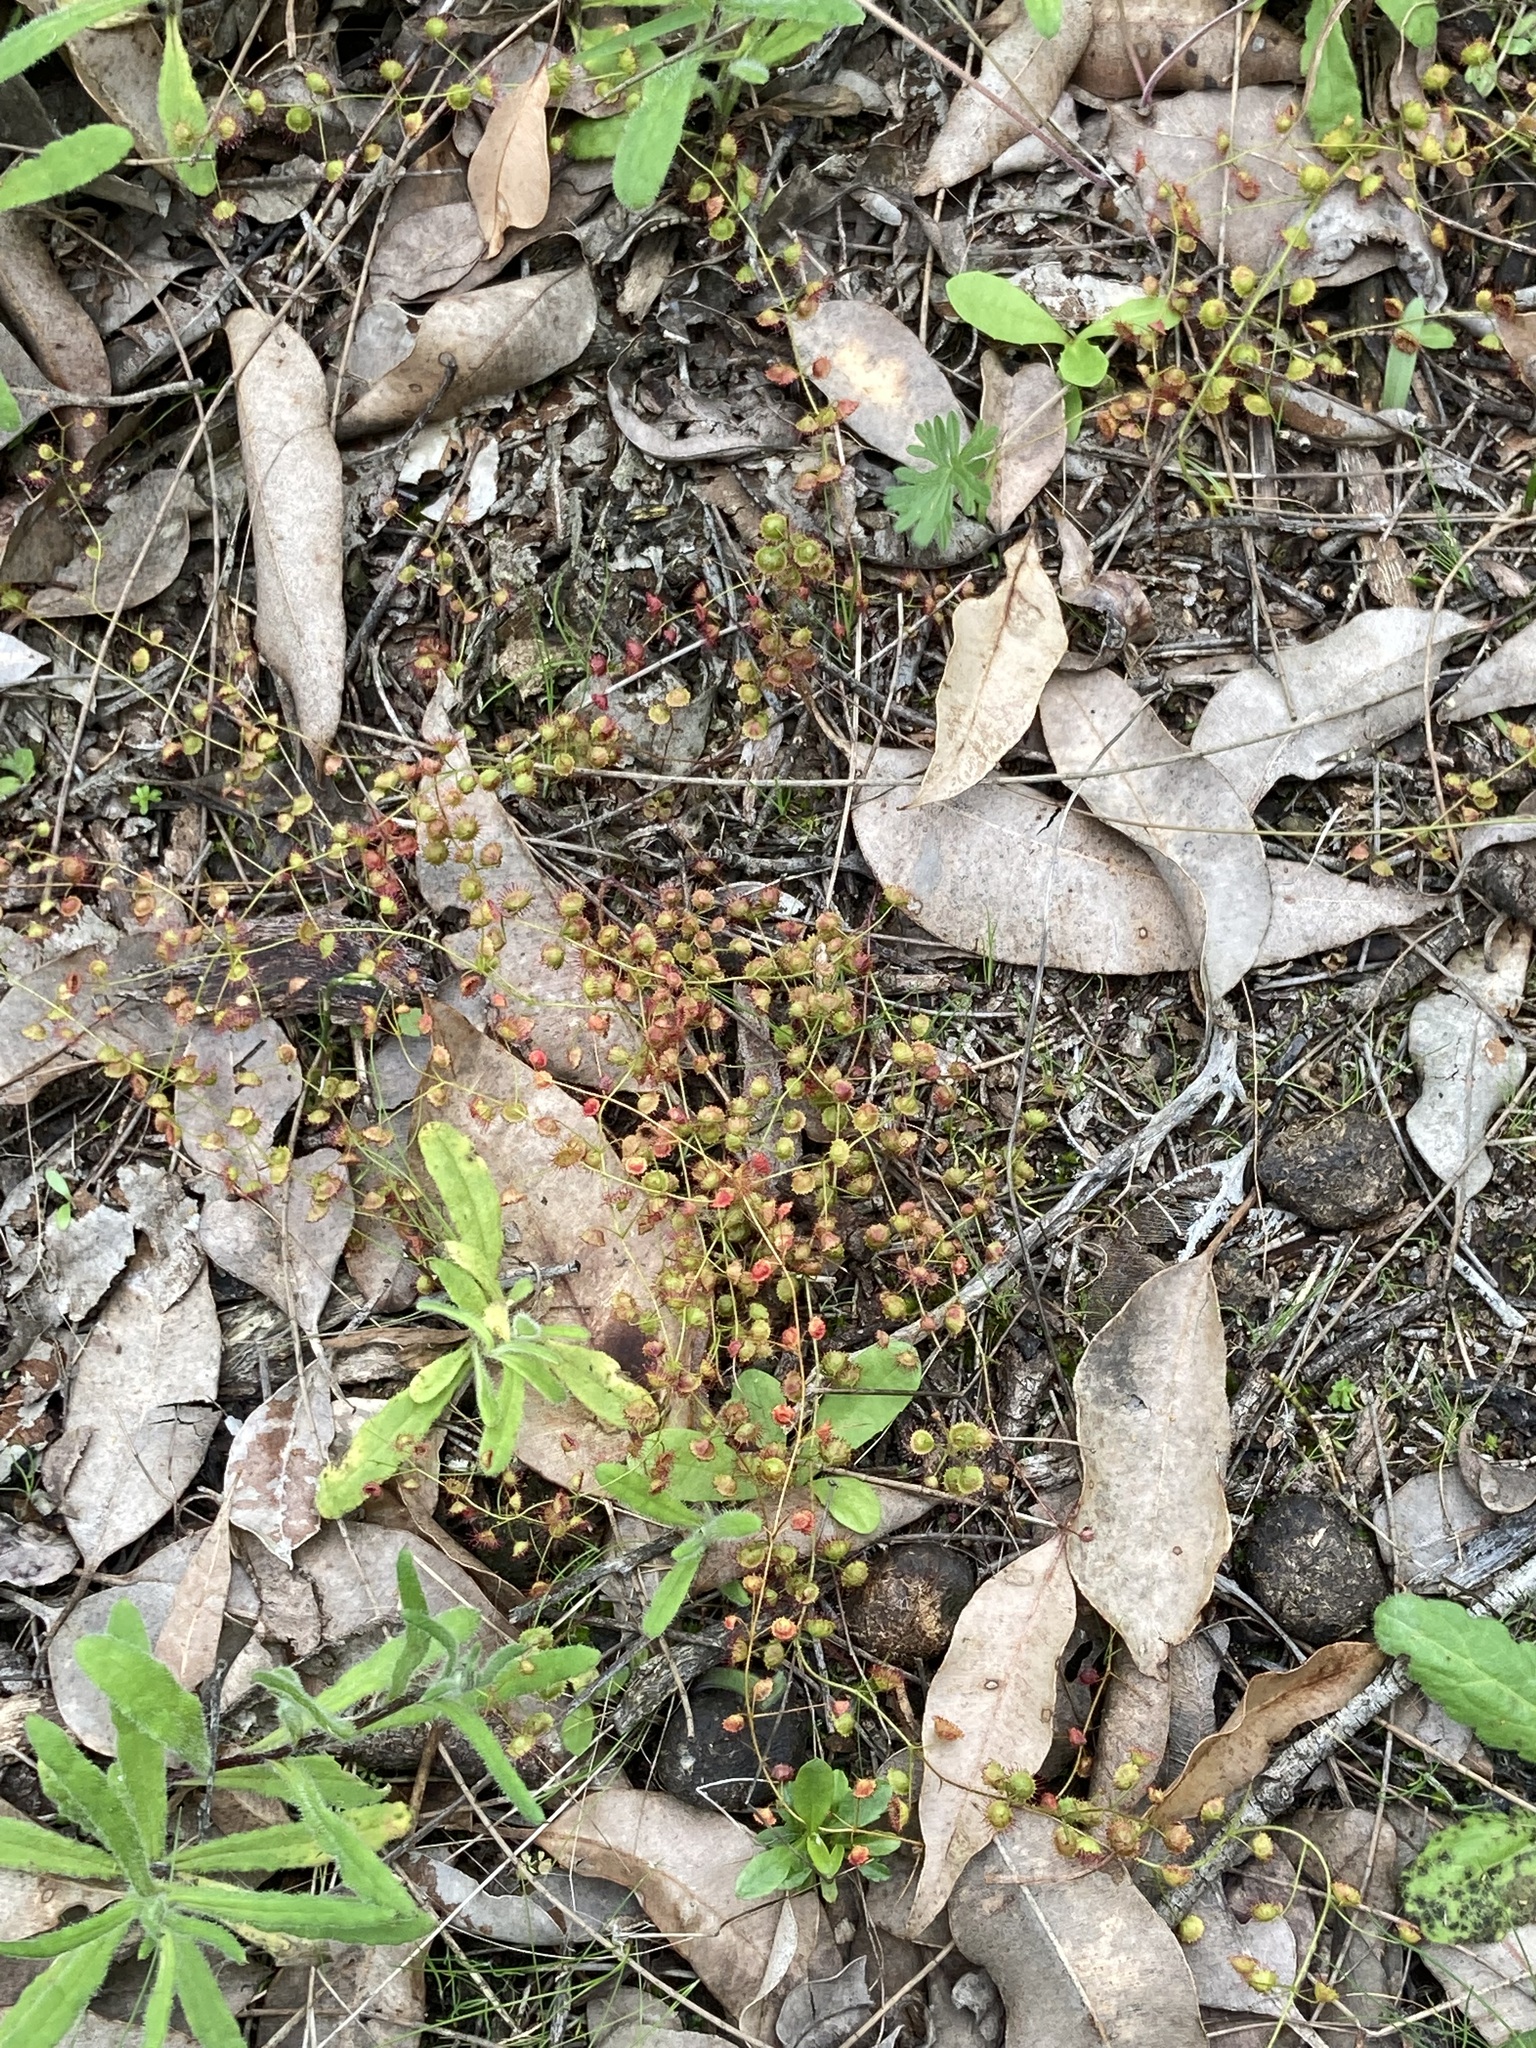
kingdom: Plantae
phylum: Tracheophyta
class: Magnoliopsida
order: Caryophyllales
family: Droseraceae
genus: Drosera
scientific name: Drosera macrantha
